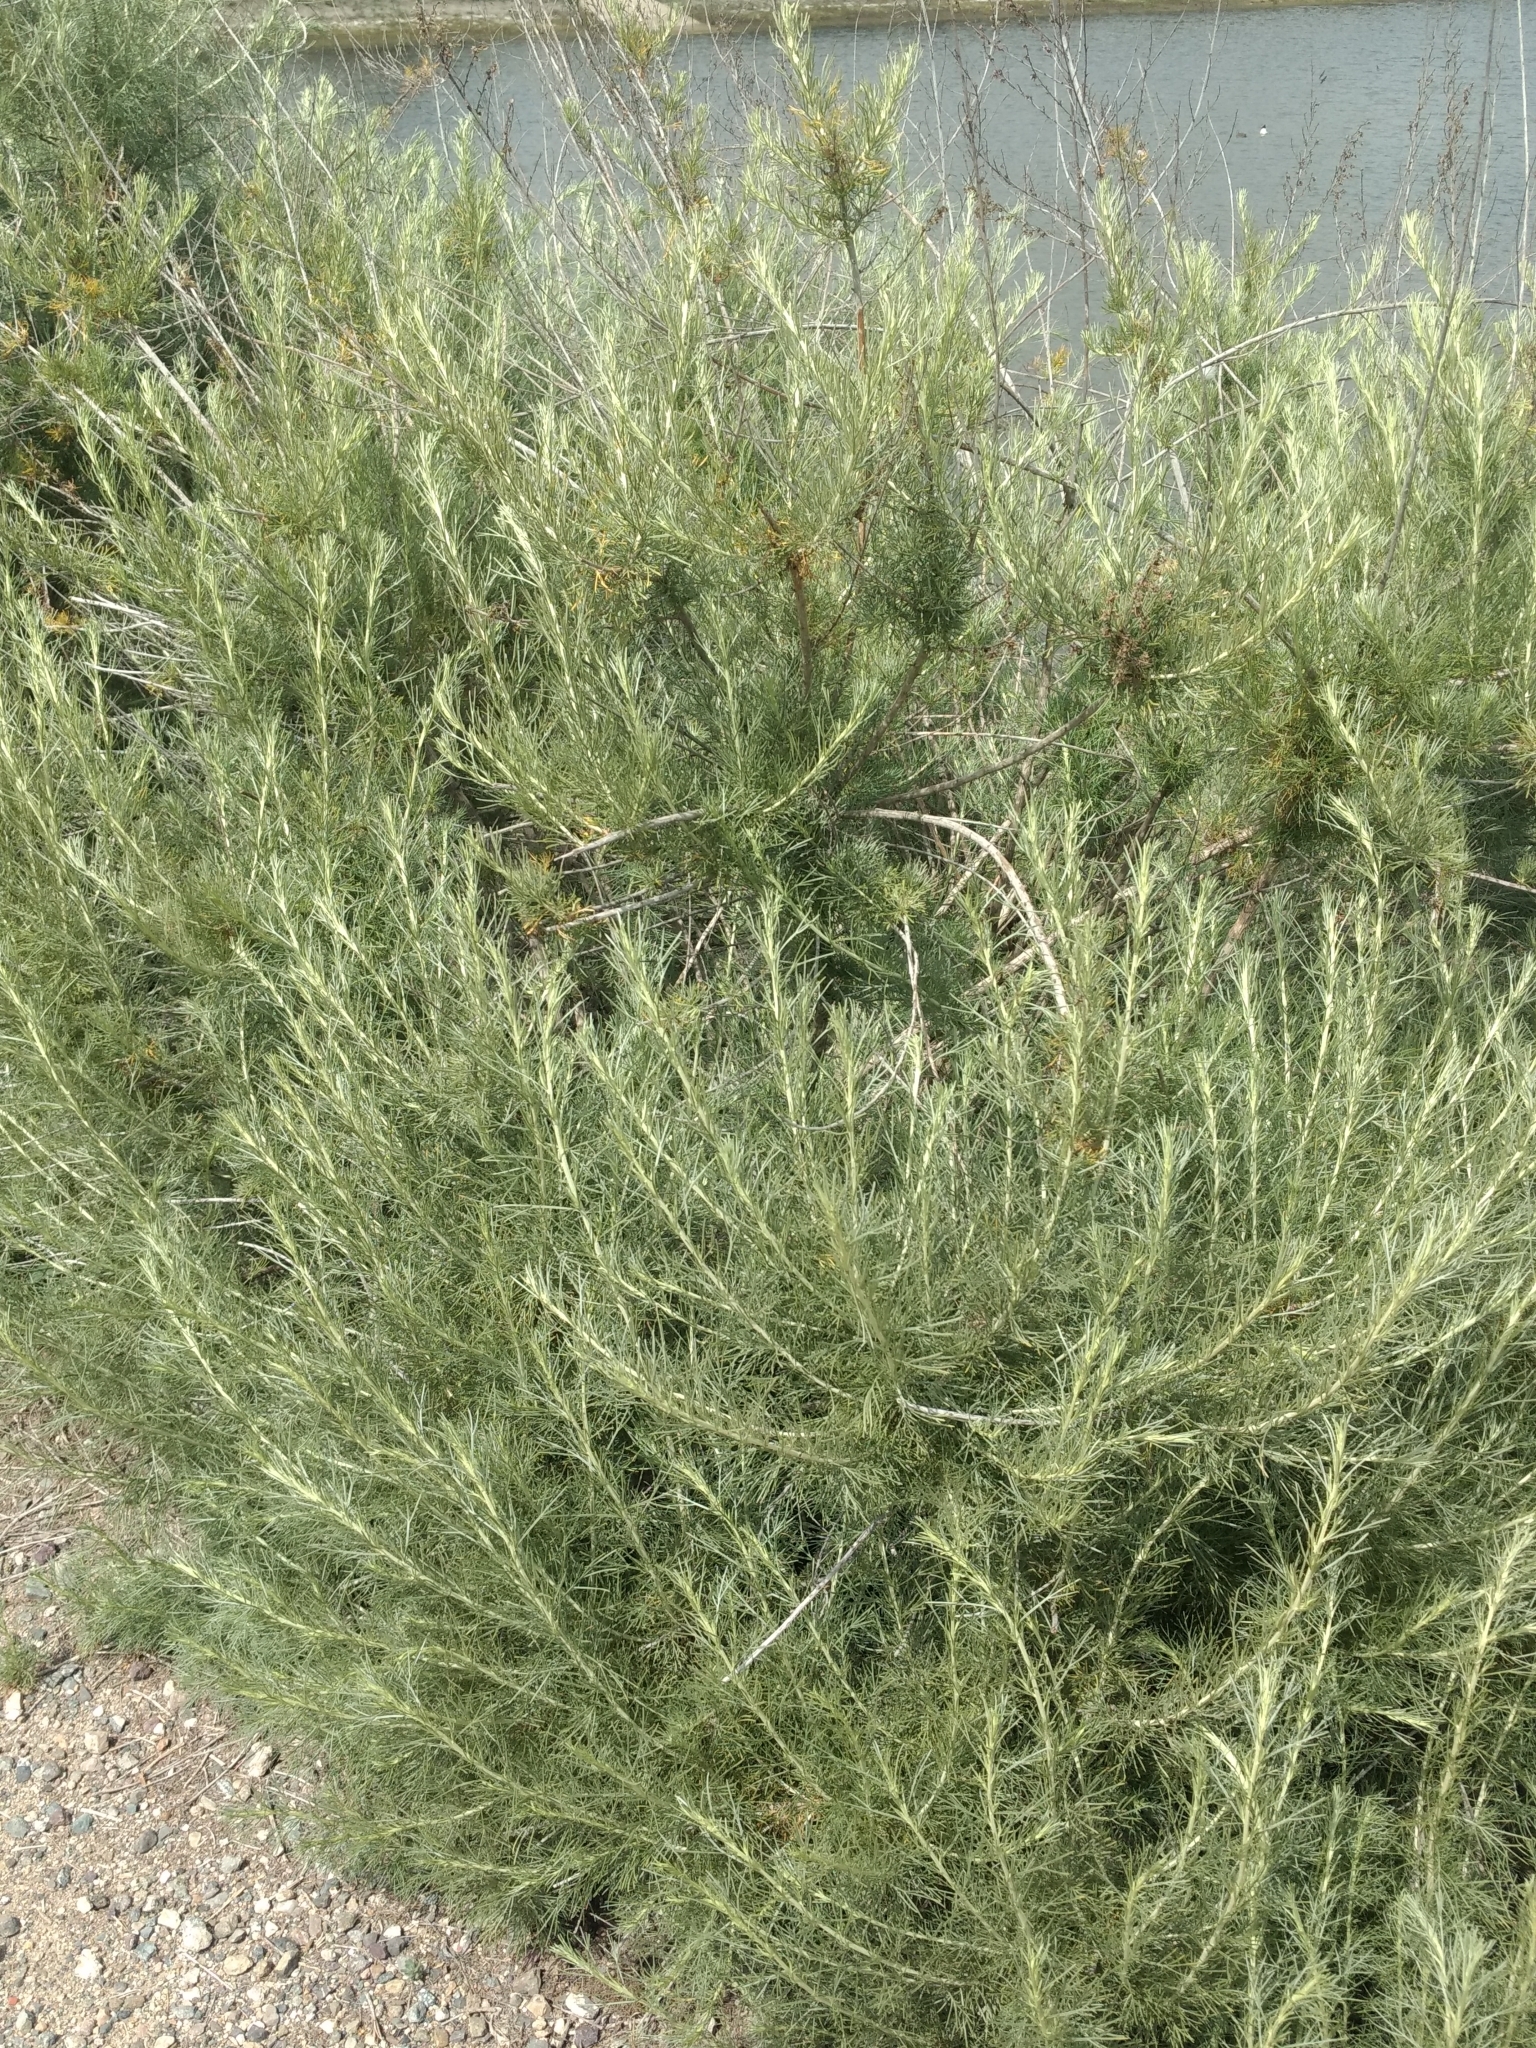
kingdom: Plantae
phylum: Tracheophyta
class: Magnoliopsida
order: Asterales
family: Asteraceae
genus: Artemisia
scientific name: Artemisia californica
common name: California sagebrush
